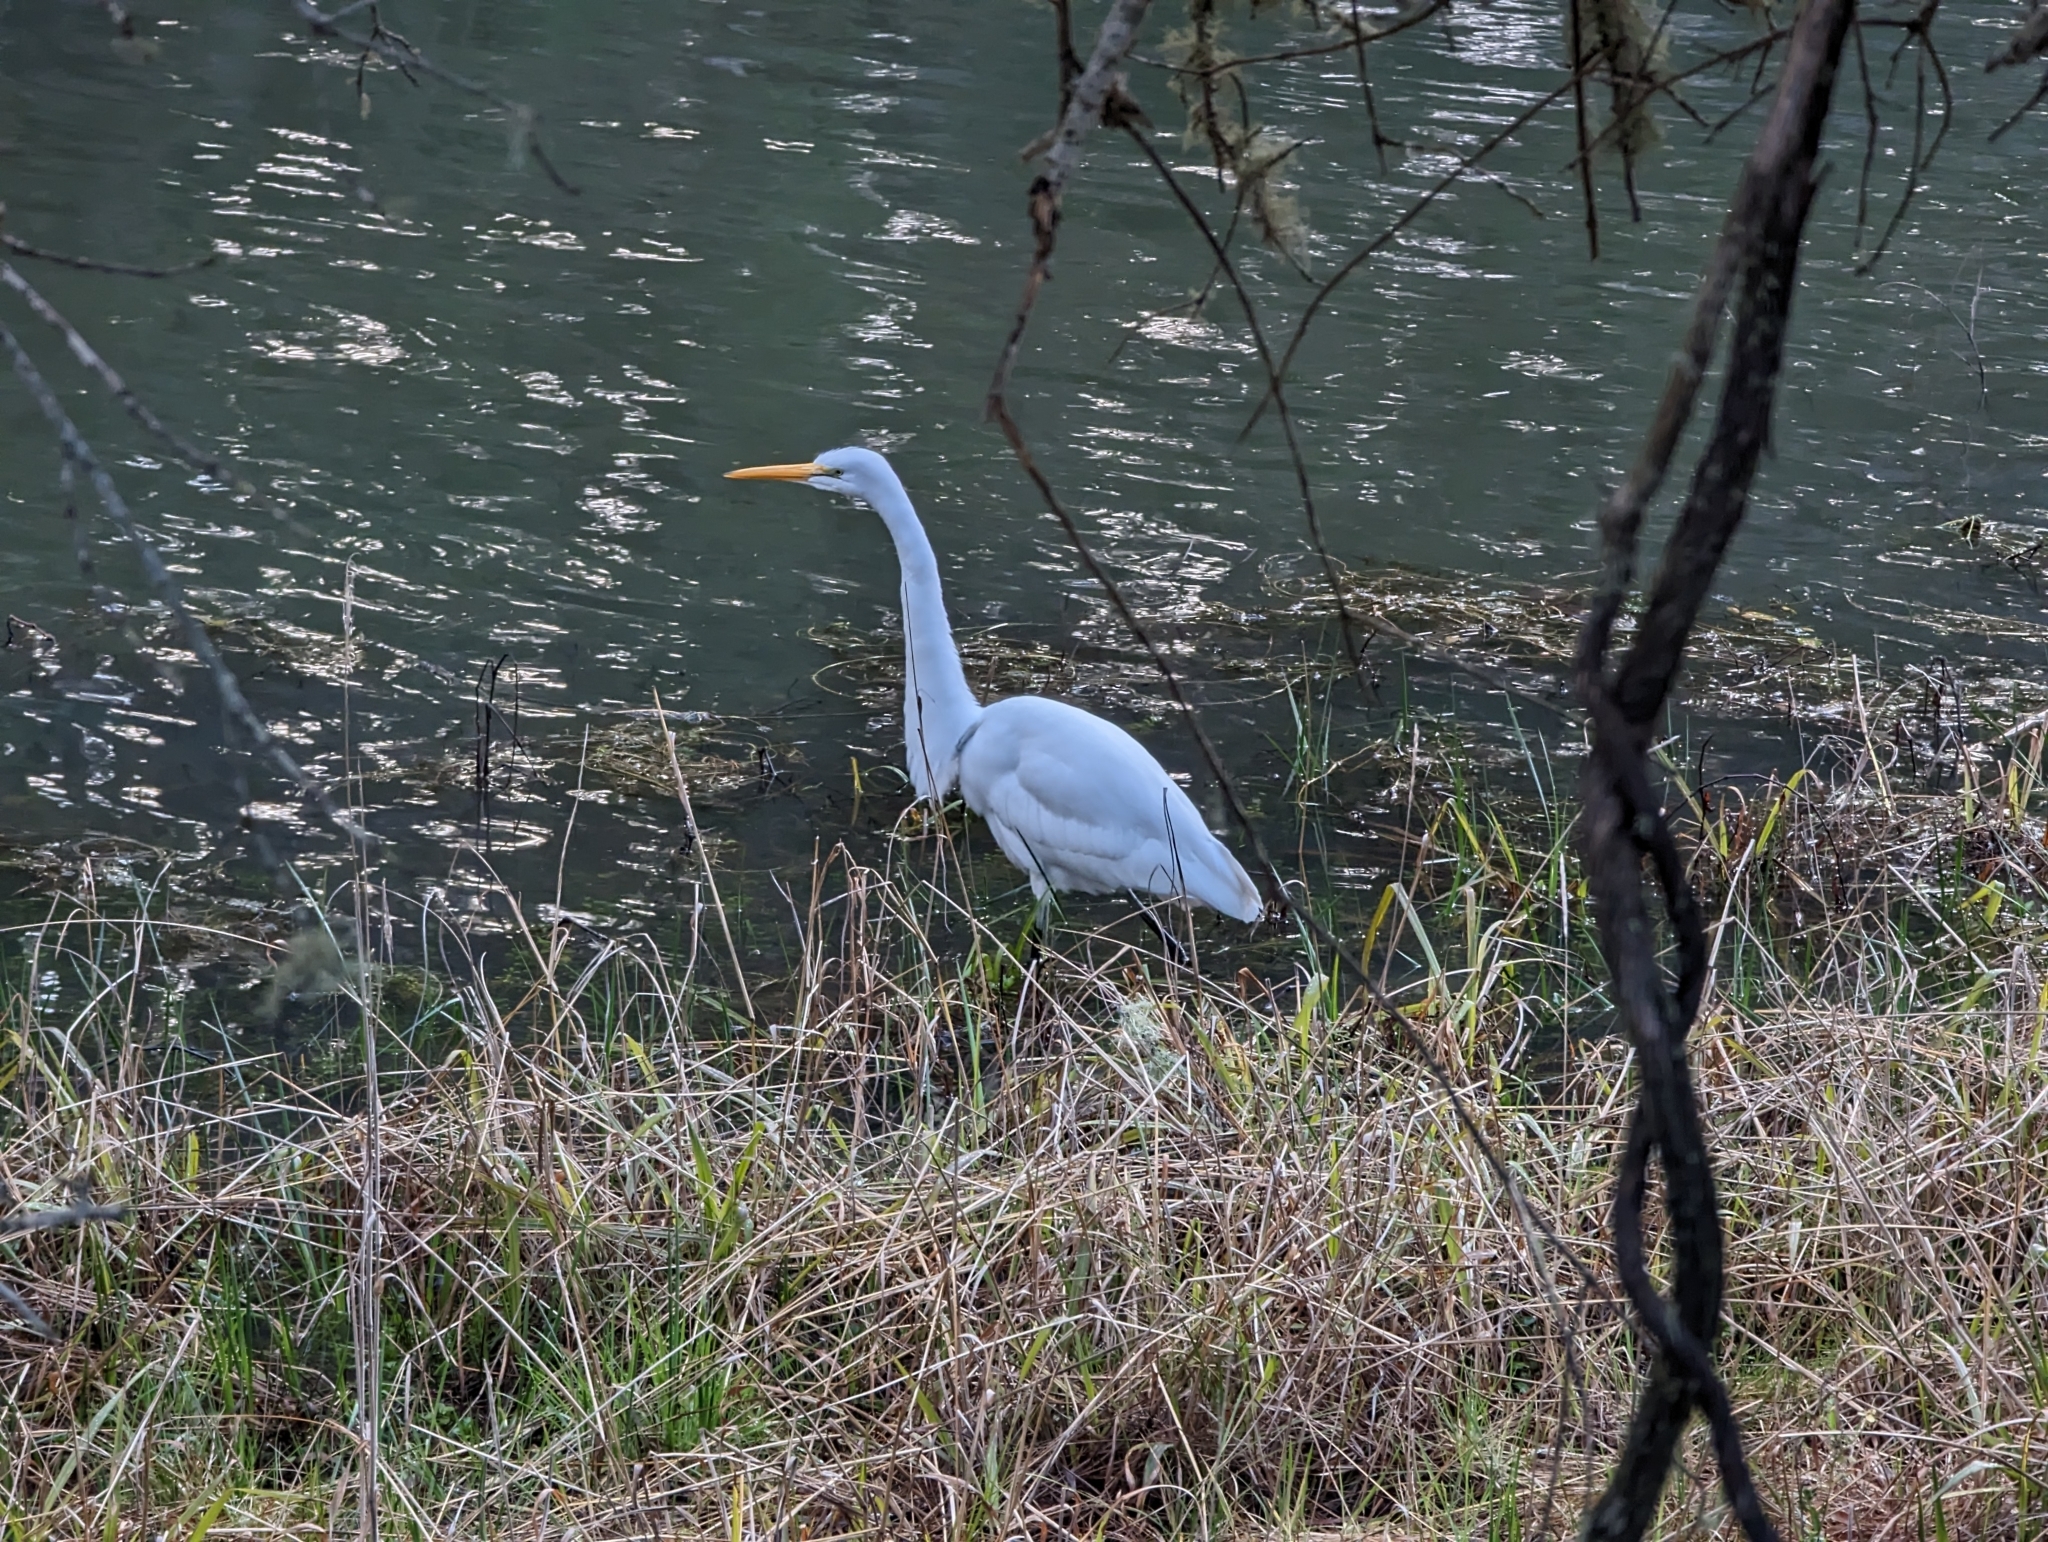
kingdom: Animalia
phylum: Chordata
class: Aves
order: Pelecaniformes
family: Ardeidae
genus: Ardea
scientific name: Ardea alba
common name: Great egret
